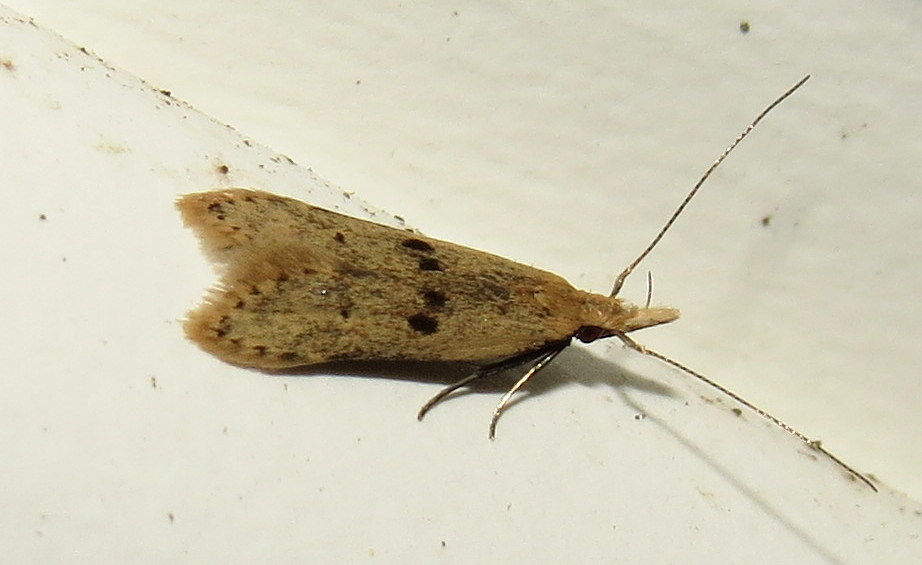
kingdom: Animalia
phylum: Arthropoda
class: Insecta
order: Lepidoptera
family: Gelechiidae
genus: Dichomeris
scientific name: Dichomeris punctipennella
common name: Many-spotted dichomeris moth
